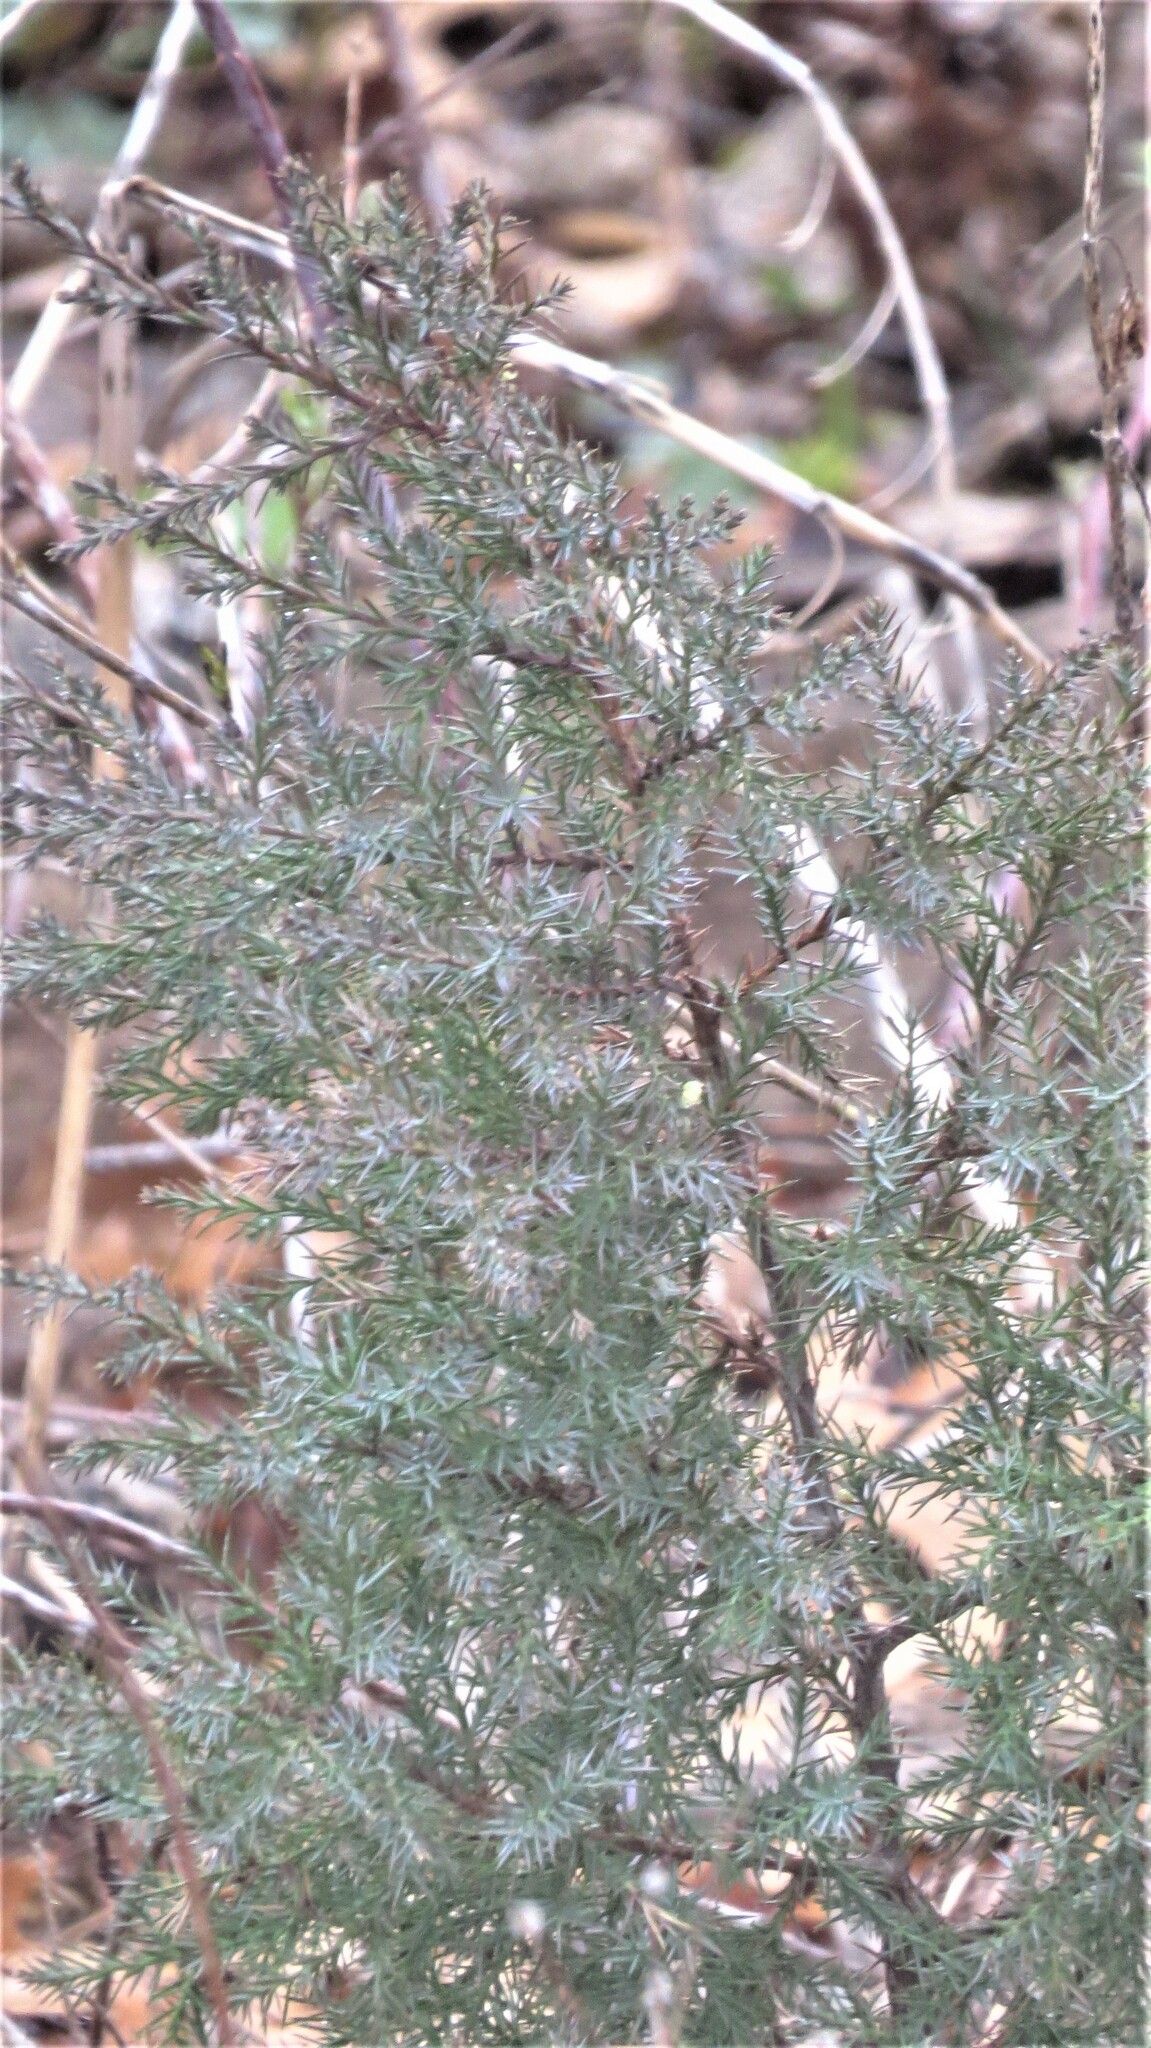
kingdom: Plantae
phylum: Tracheophyta
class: Pinopsida
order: Pinales
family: Cupressaceae
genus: Juniperus
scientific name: Juniperus virginiana
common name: Red juniper
